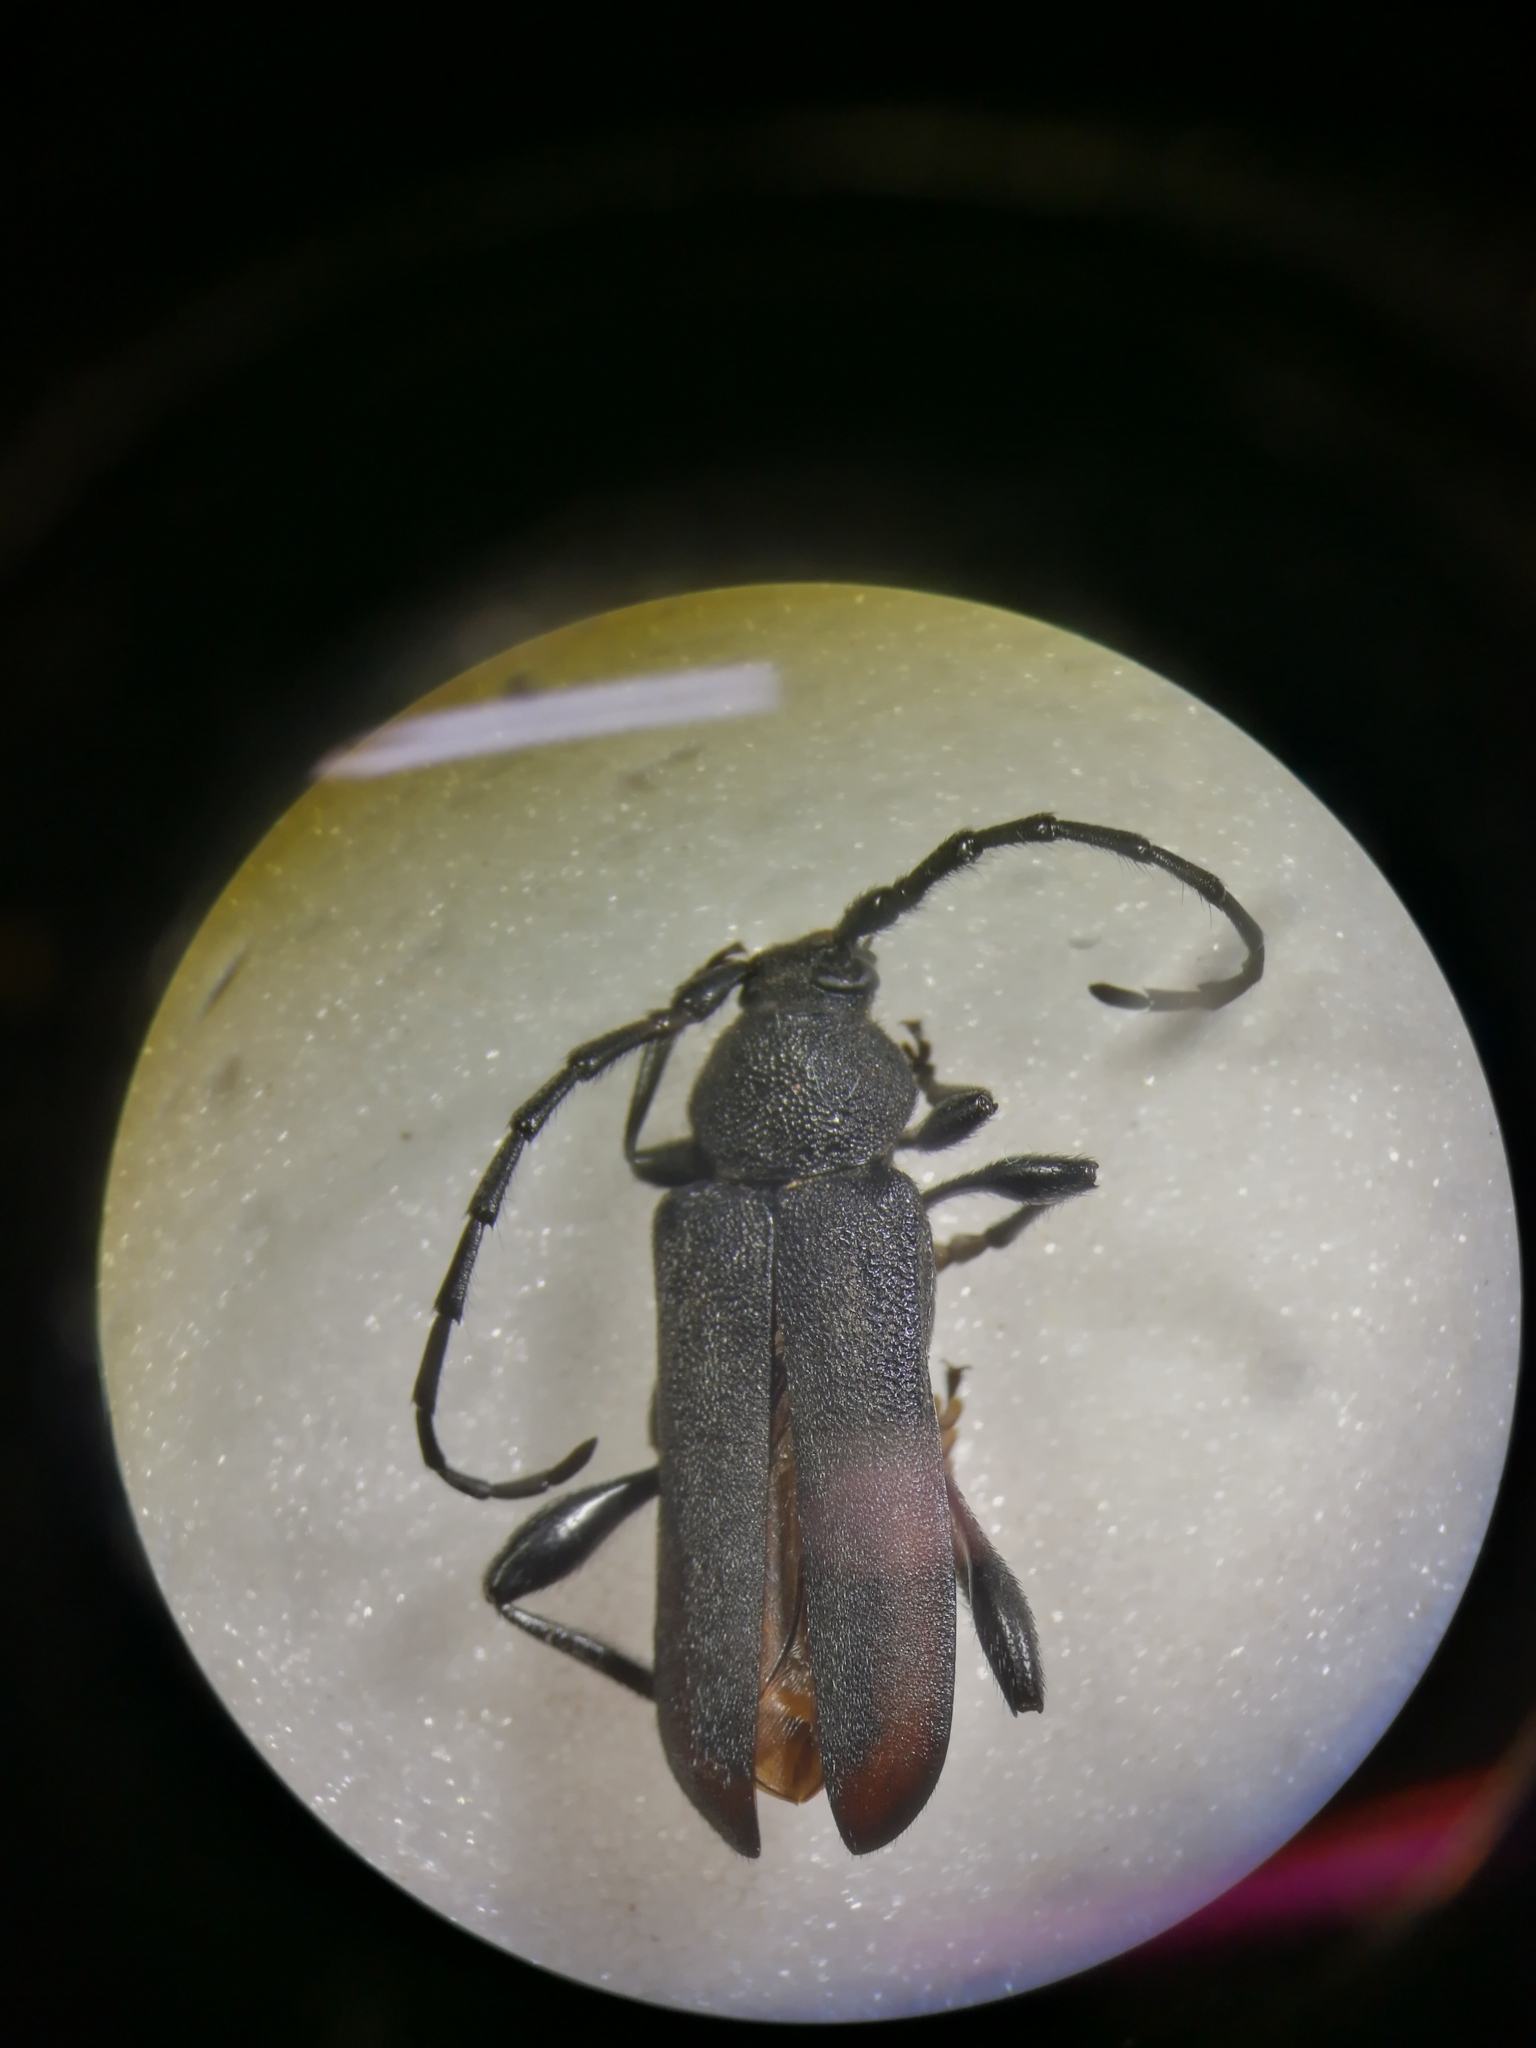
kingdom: Animalia
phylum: Arthropoda
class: Insecta
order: Coleoptera
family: Cerambycidae
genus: Ropalopus
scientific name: Ropalopus clavipes
